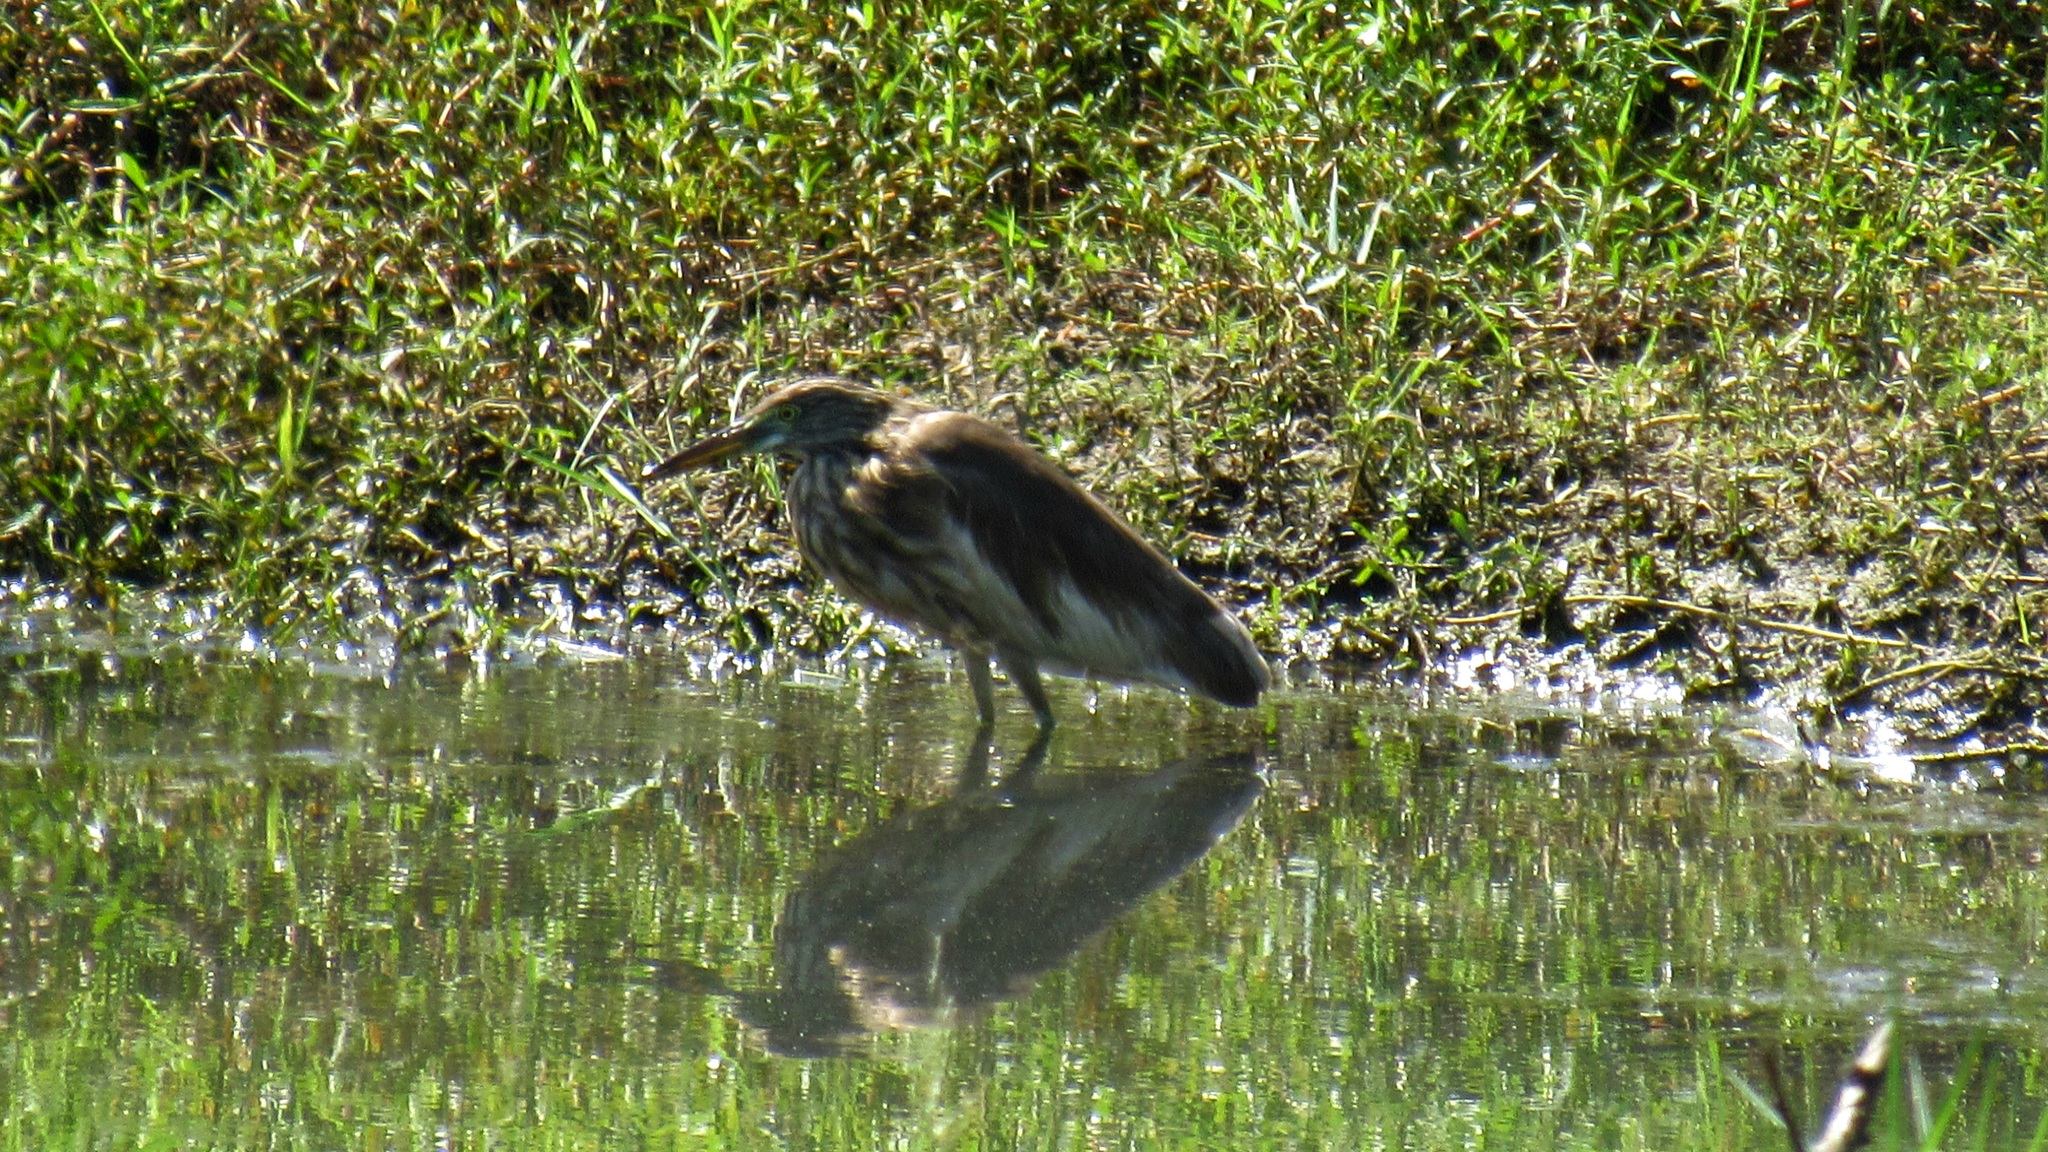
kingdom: Animalia
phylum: Chordata
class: Aves
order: Pelecaniformes
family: Ardeidae
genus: Ardeola
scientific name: Ardeola grayii
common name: Indian pond heron
